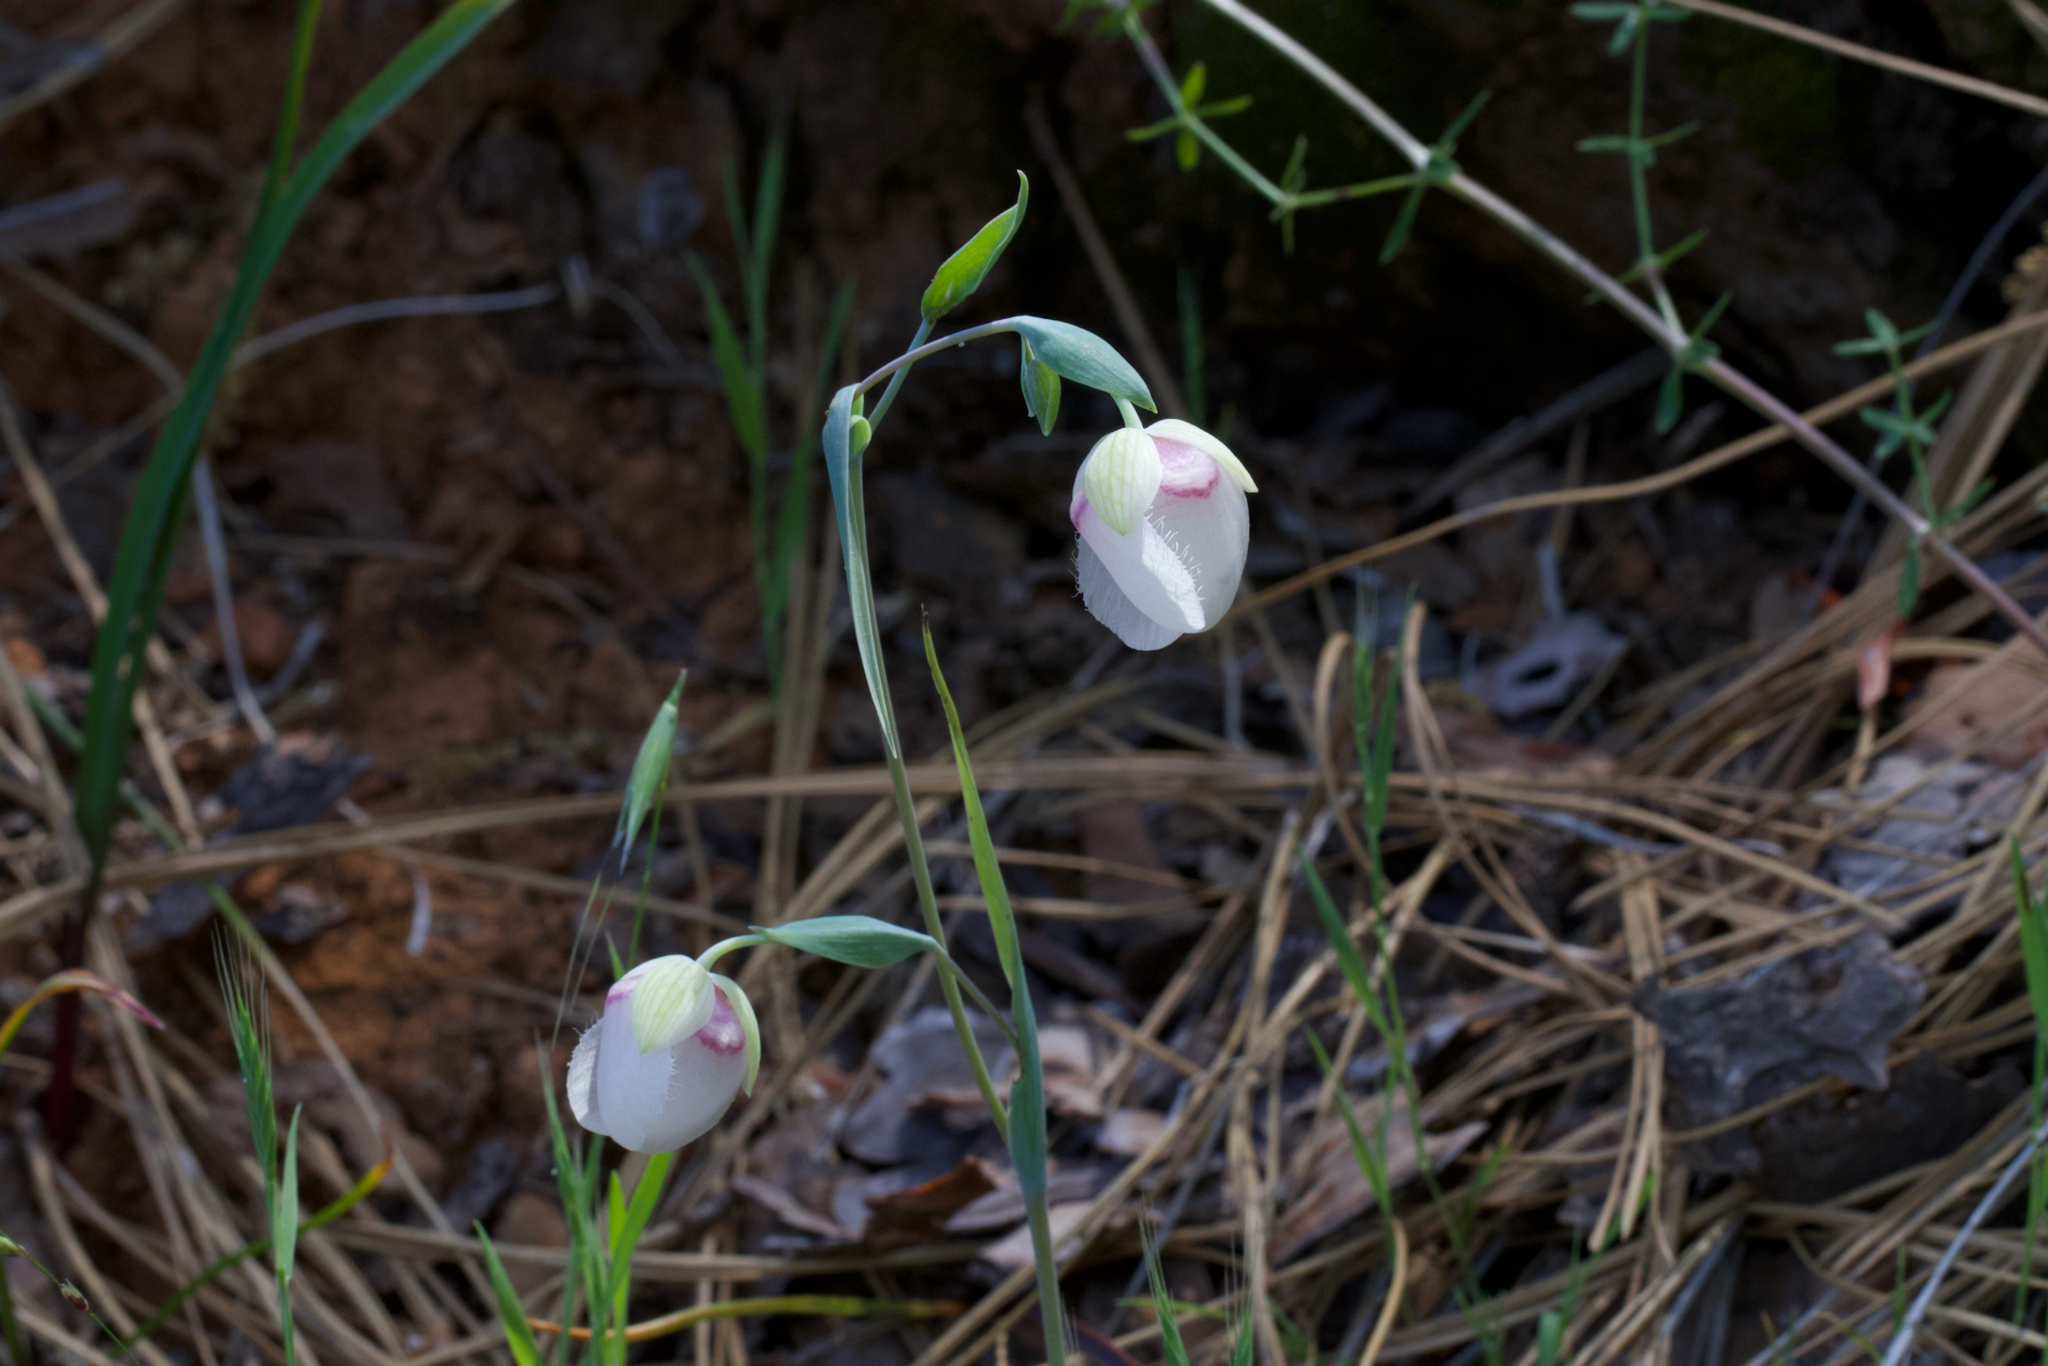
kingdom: Plantae
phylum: Tracheophyta
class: Liliopsida
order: Liliales
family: Liliaceae
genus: Calochortus
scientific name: Calochortus albus
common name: Fairy-lantern
